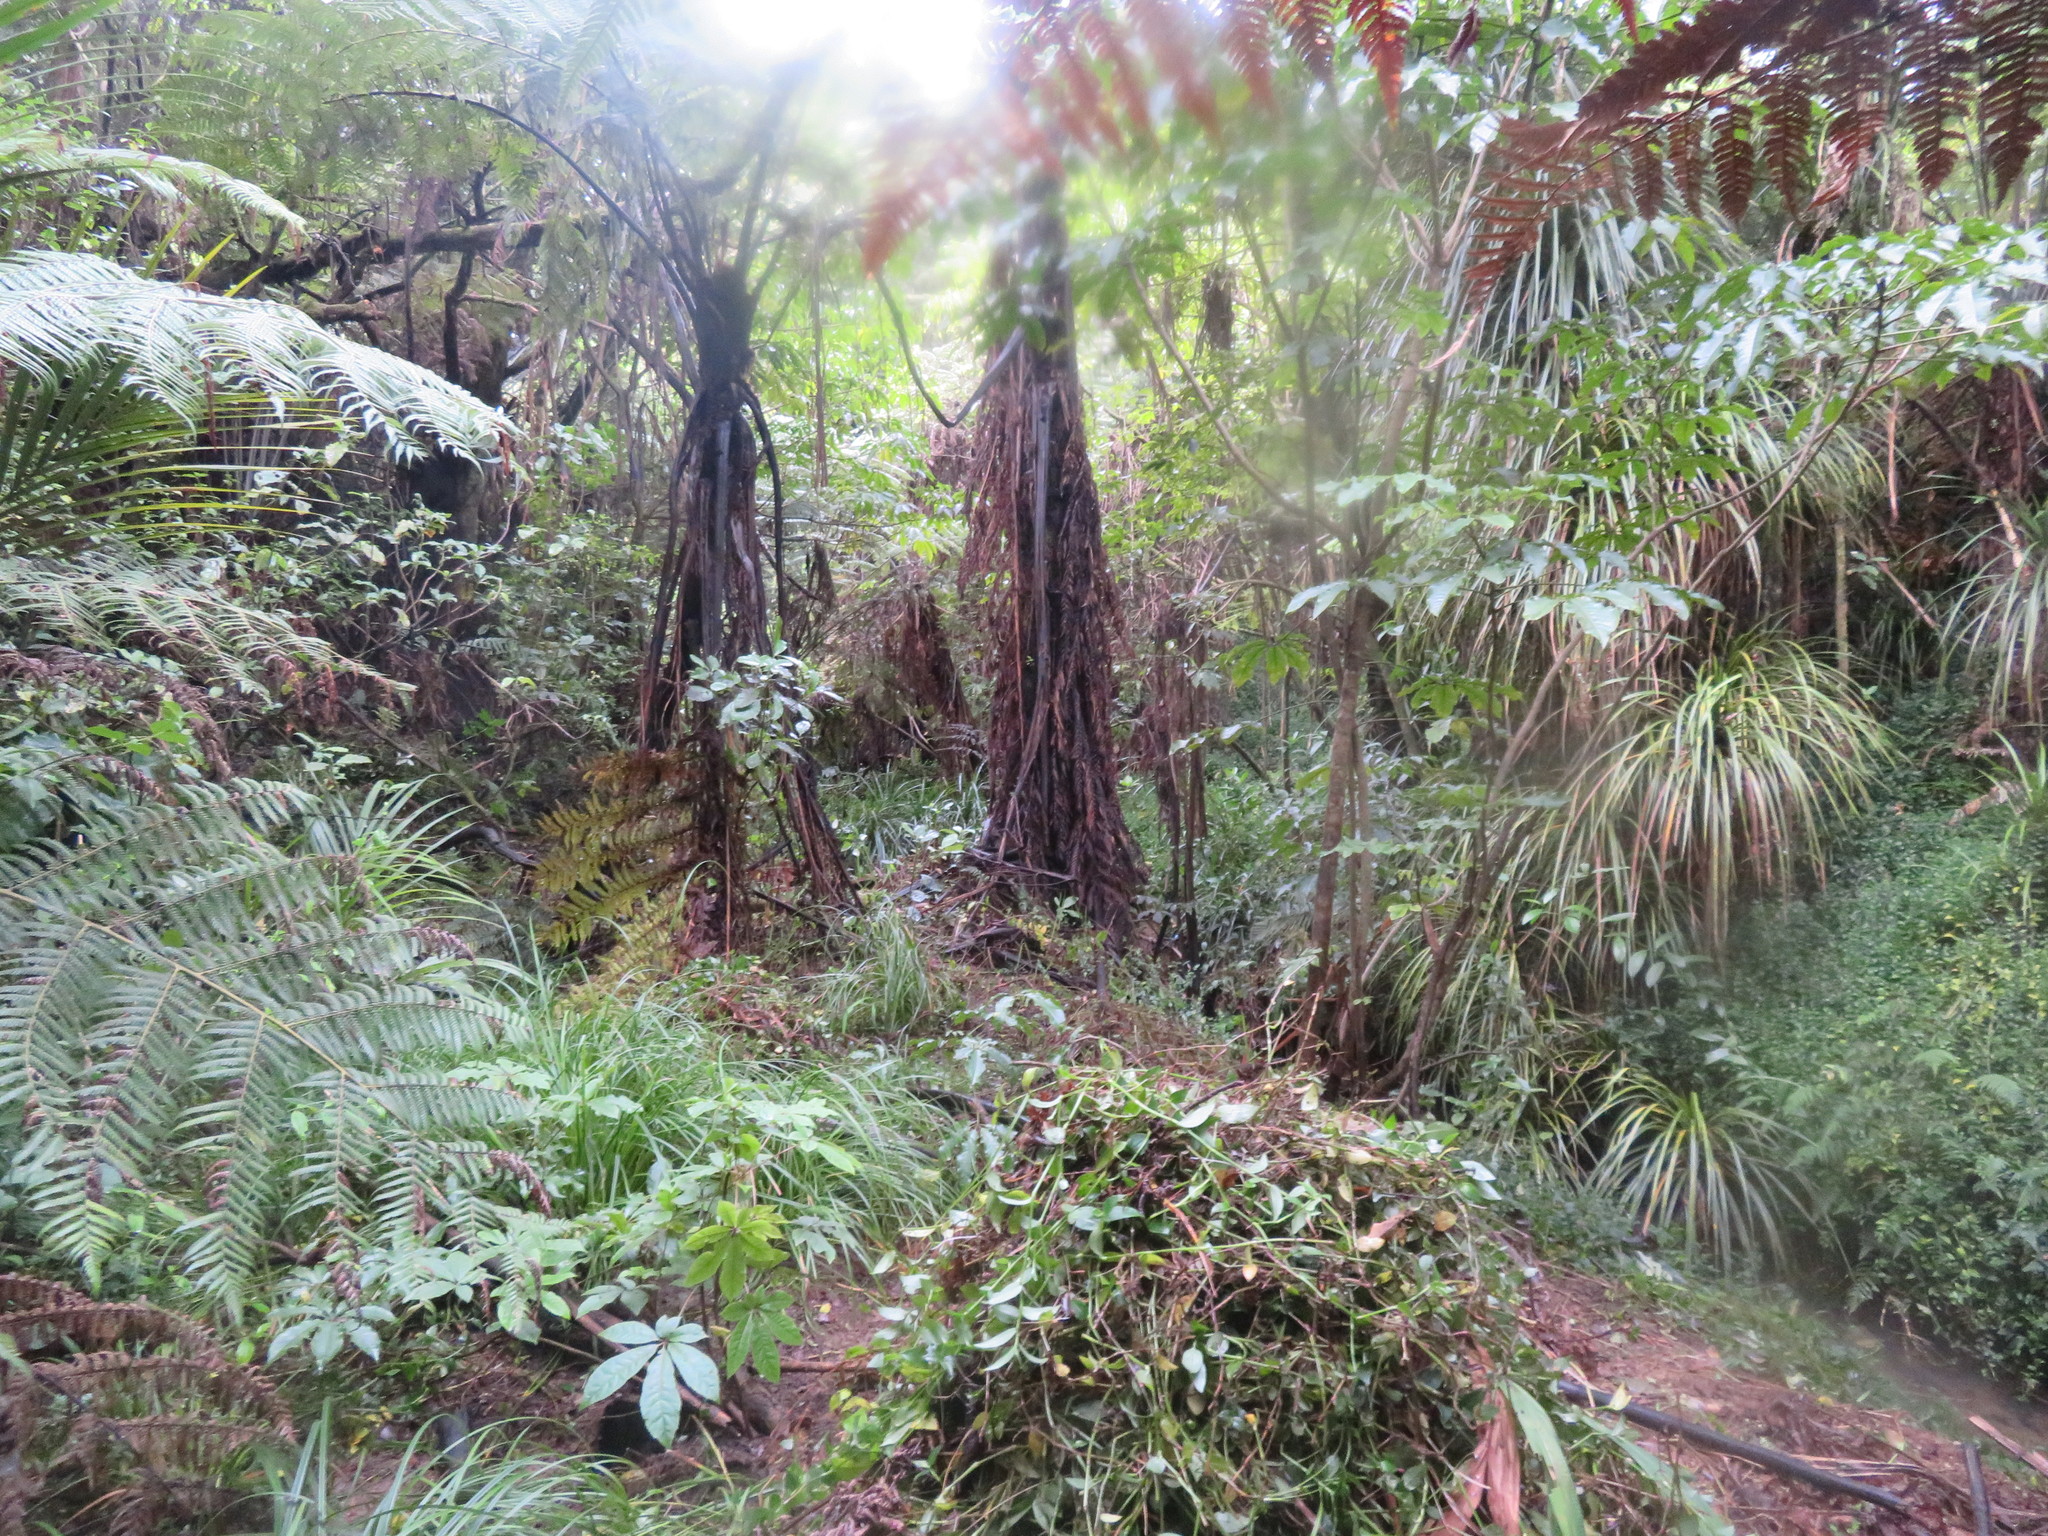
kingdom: Plantae
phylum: Tracheophyta
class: Liliopsida
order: Commelinales
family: Commelinaceae
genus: Tradescantia
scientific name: Tradescantia fluminensis
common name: Wandering-jew
